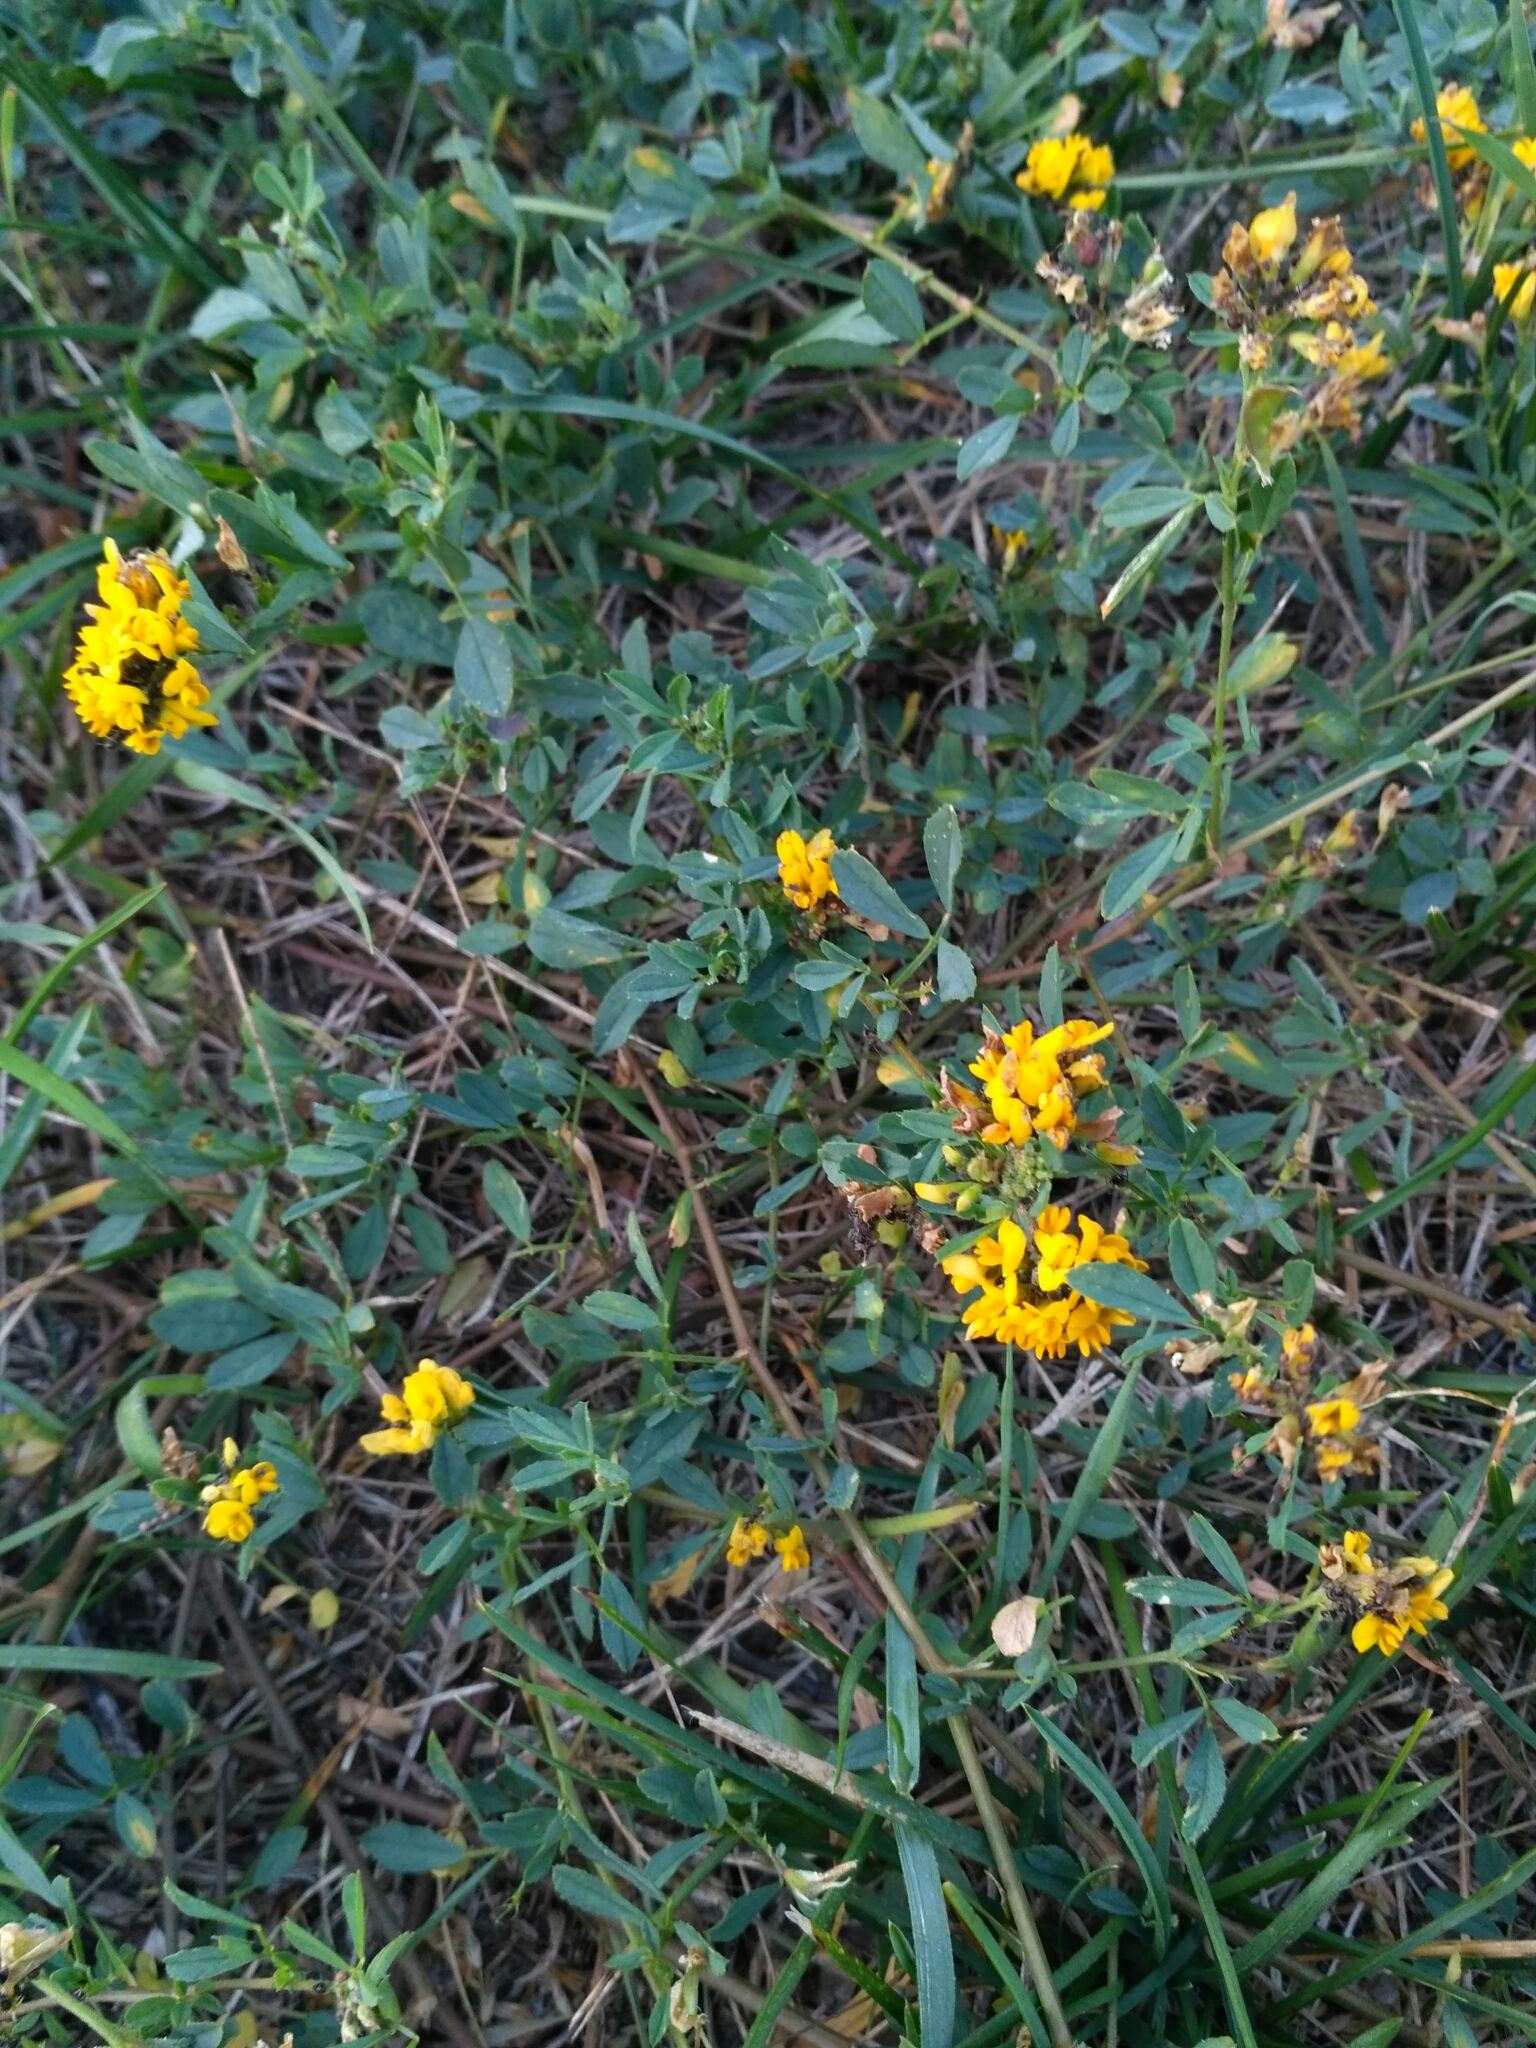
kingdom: Plantae
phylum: Tracheophyta
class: Magnoliopsida
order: Fabales
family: Fabaceae
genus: Medicago
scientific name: Medicago falcata
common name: Sickle medick
